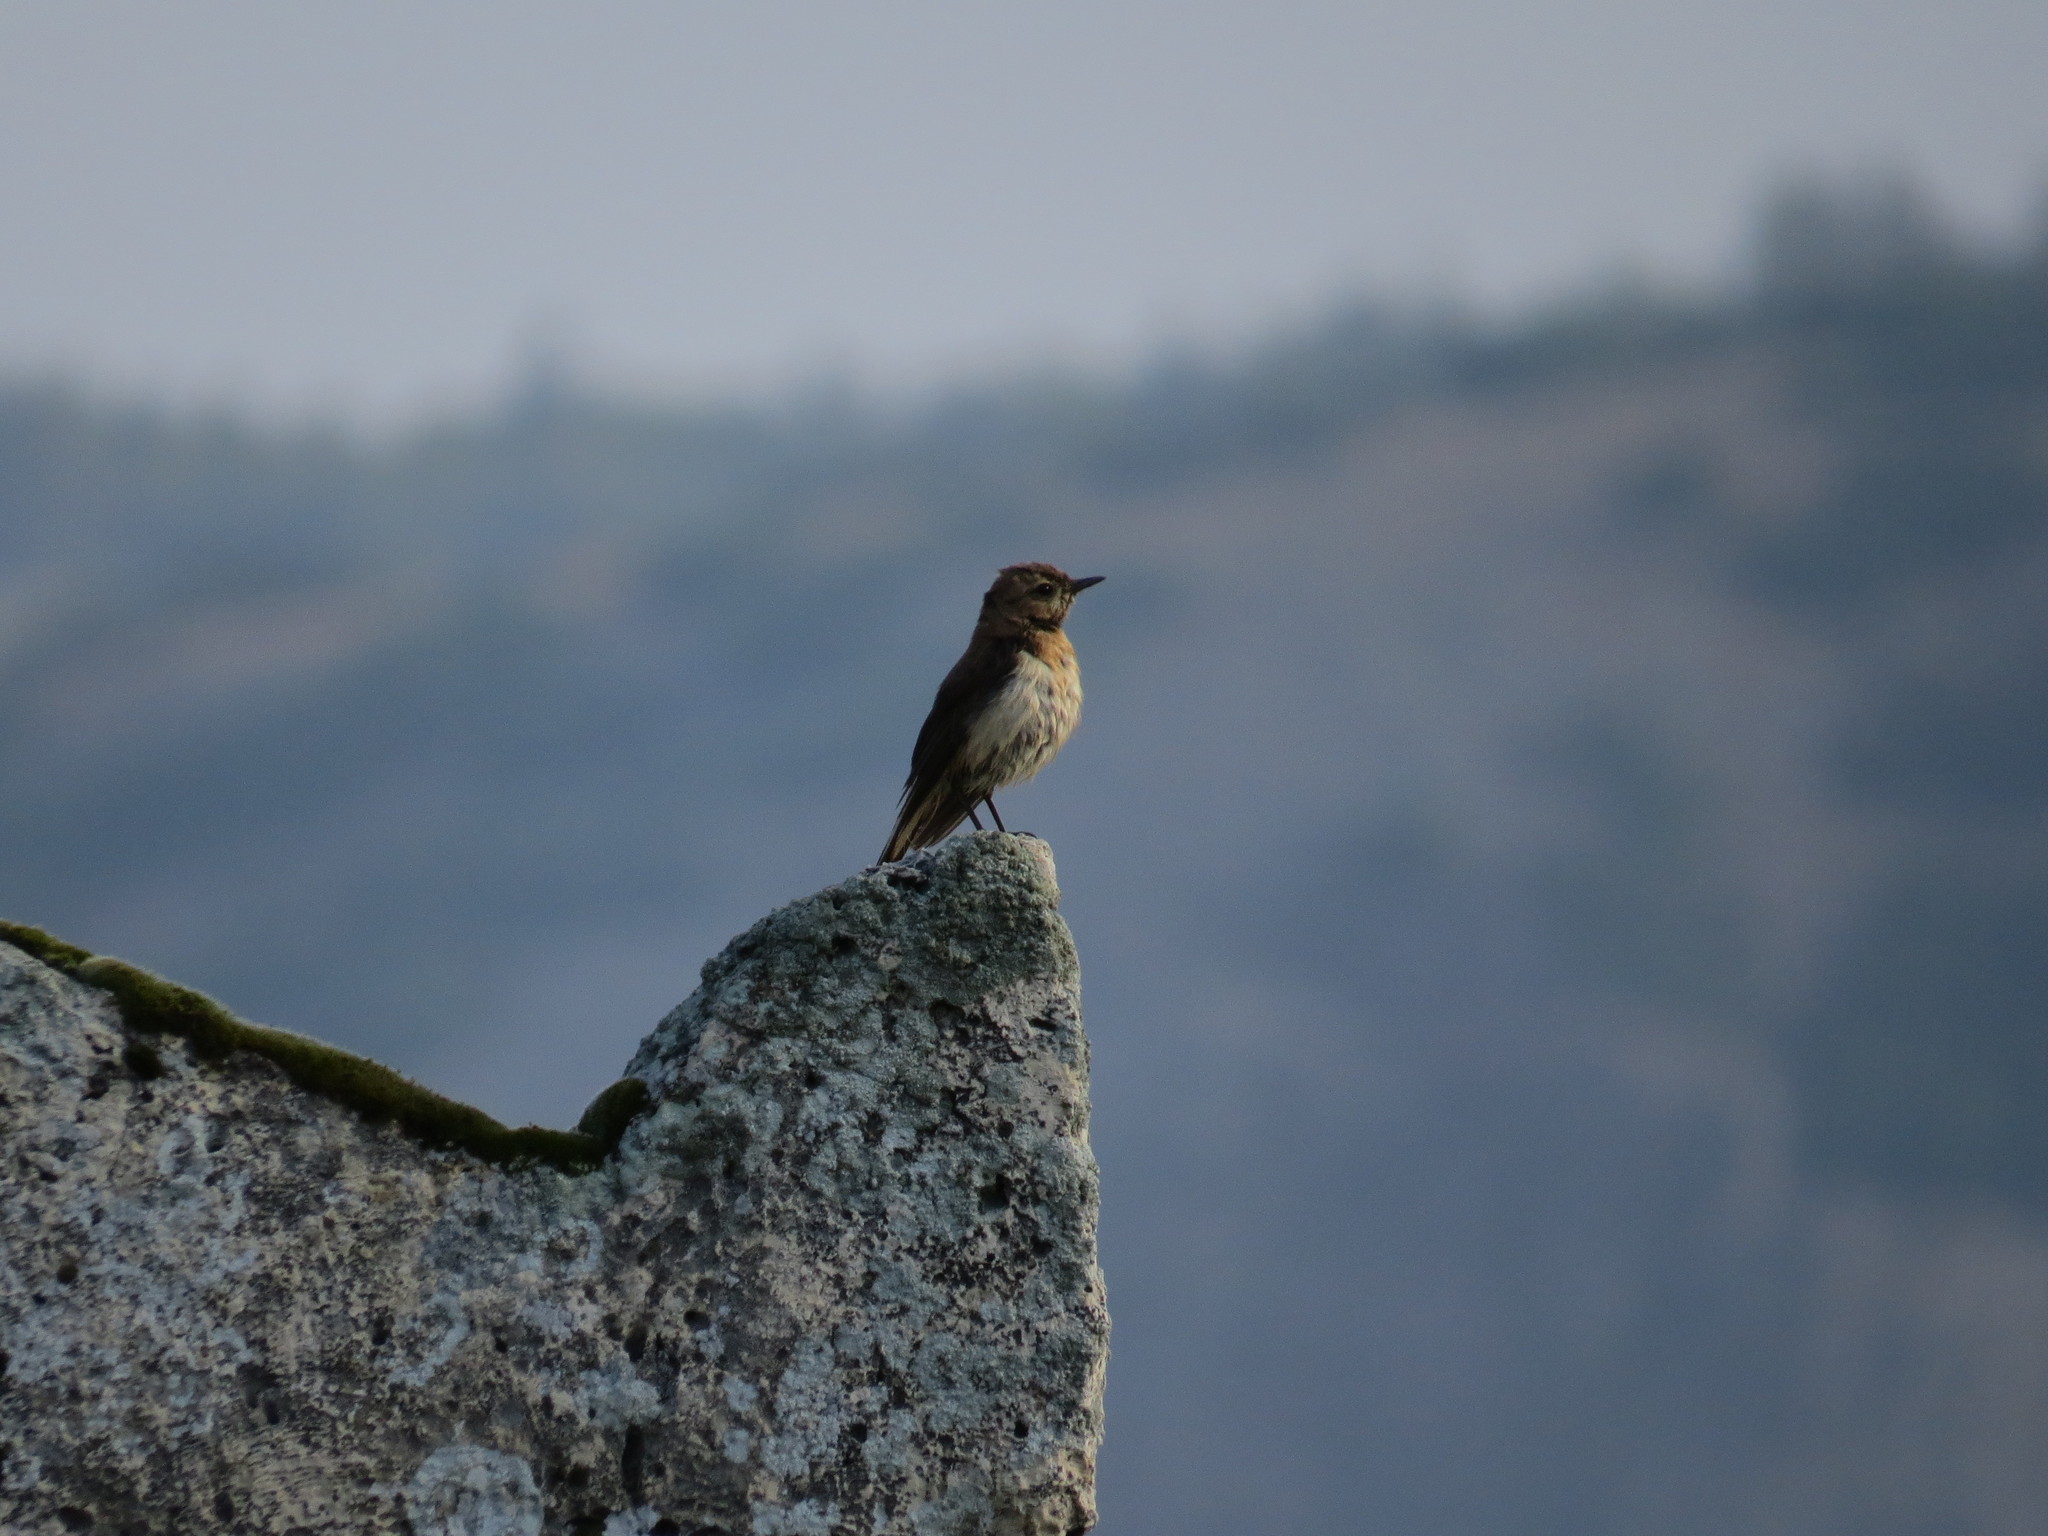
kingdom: Animalia
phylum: Chordata
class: Aves
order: Passeriformes
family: Muscicapidae
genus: Oenanthe
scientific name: Oenanthe hispanica
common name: Black-eared wheatear
